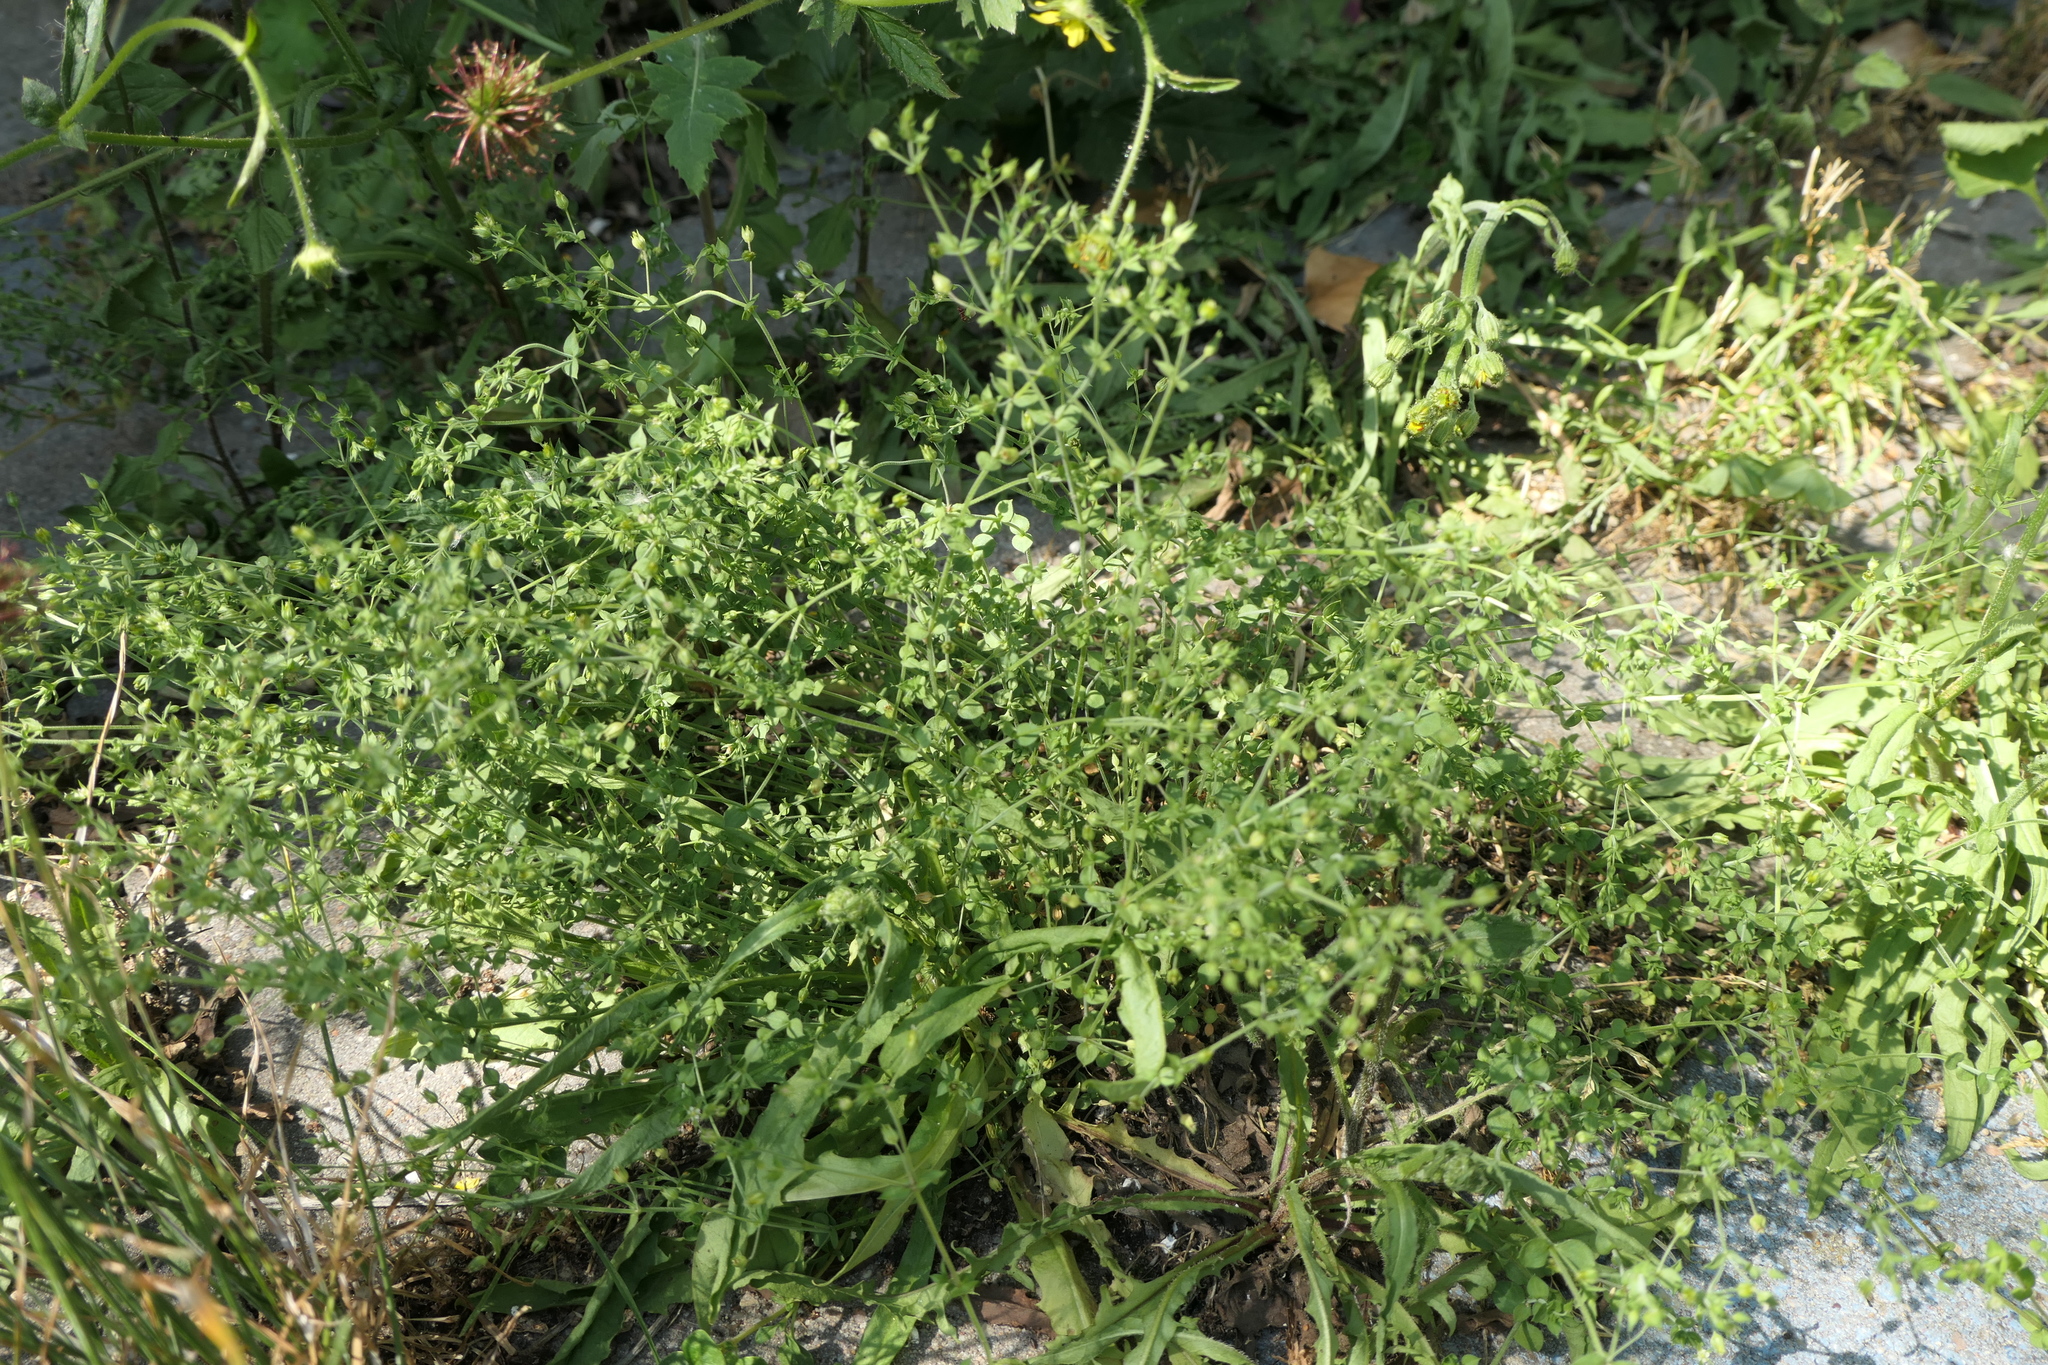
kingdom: Plantae
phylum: Tracheophyta
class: Magnoliopsida
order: Caryophyllales
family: Caryophyllaceae
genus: Arenaria
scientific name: Arenaria serpyllifolia
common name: Thyme-leaved sandwort
